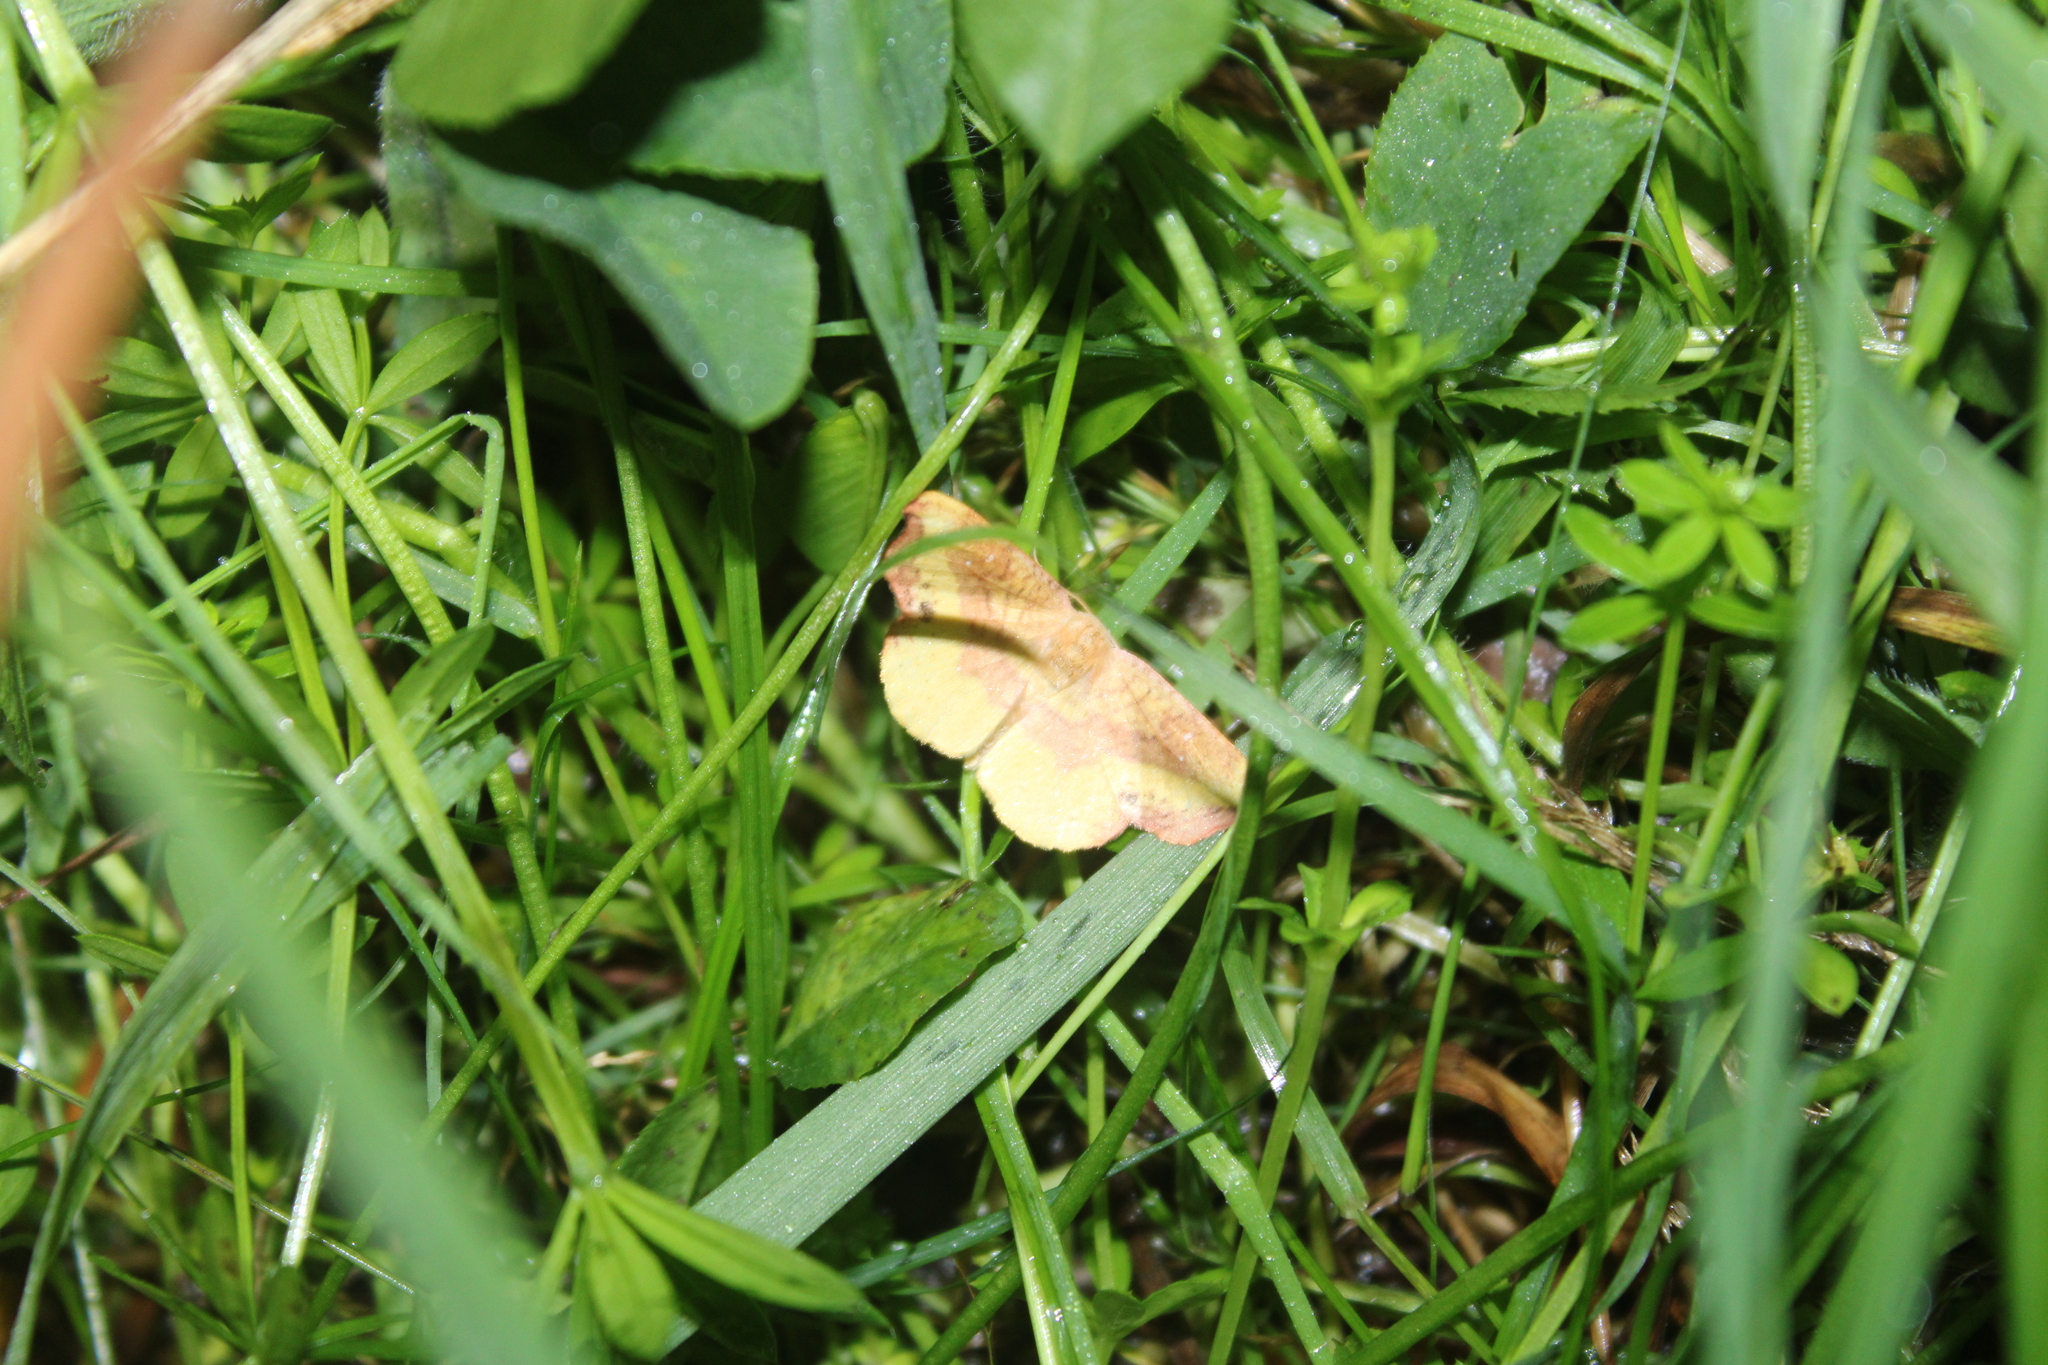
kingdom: Animalia
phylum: Arthropoda
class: Insecta
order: Lepidoptera
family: Drepanidae
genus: Oreta
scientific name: Oreta rosea
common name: Rose hooktip
